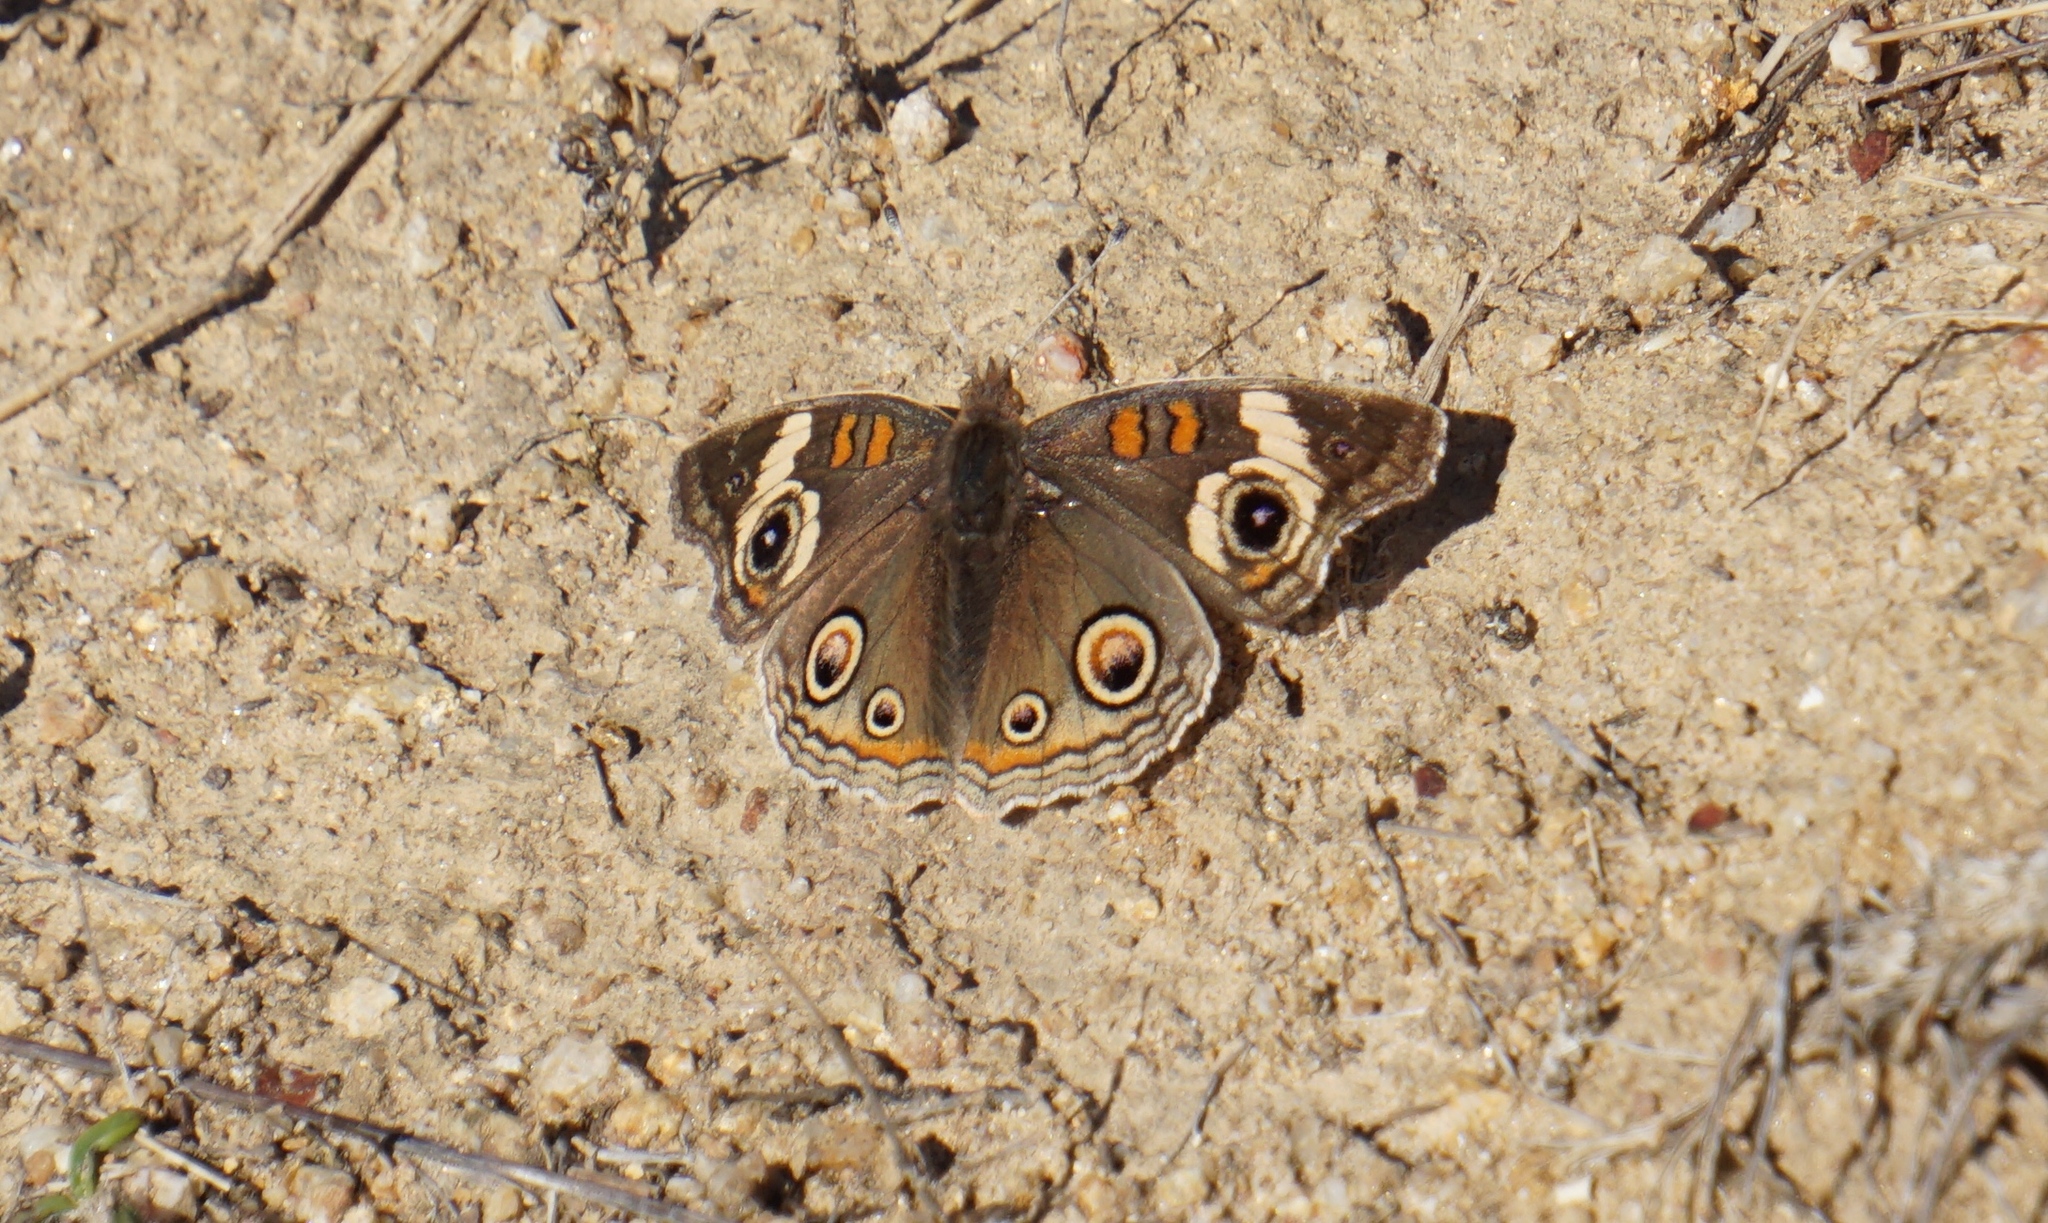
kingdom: Animalia
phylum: Arthropoda
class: Insecta
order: Lepidoptera
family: Nymphalidae
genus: Junonia
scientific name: Junonia grisea
